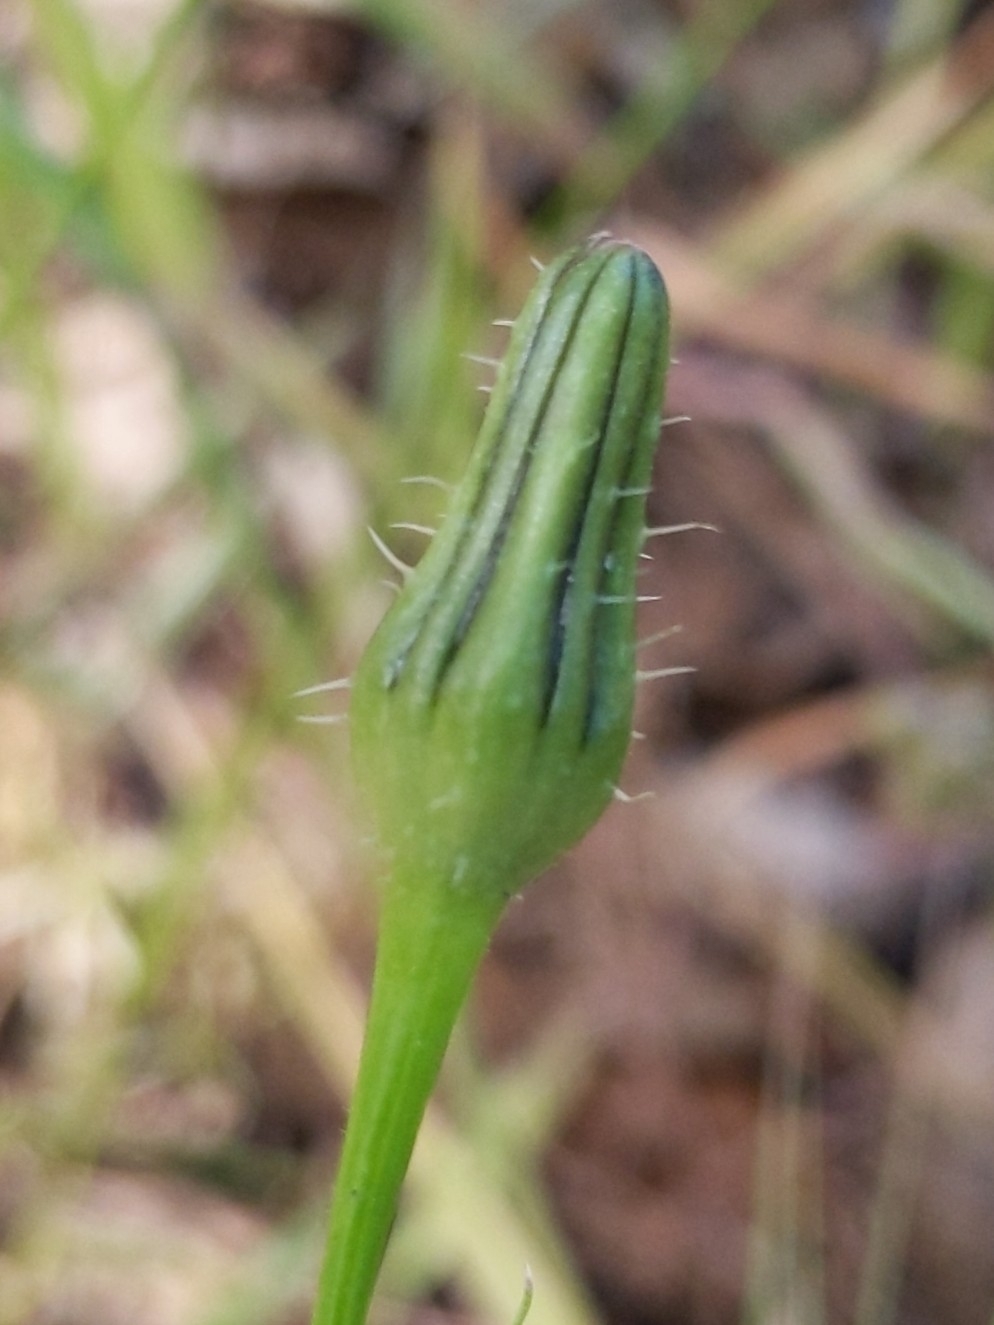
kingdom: Plantae
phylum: Tracheophyta
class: Magnoliopsida
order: Asterales
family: Asteraceae
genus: Urospermum
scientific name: Urospermum picroides
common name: False hawkbit
